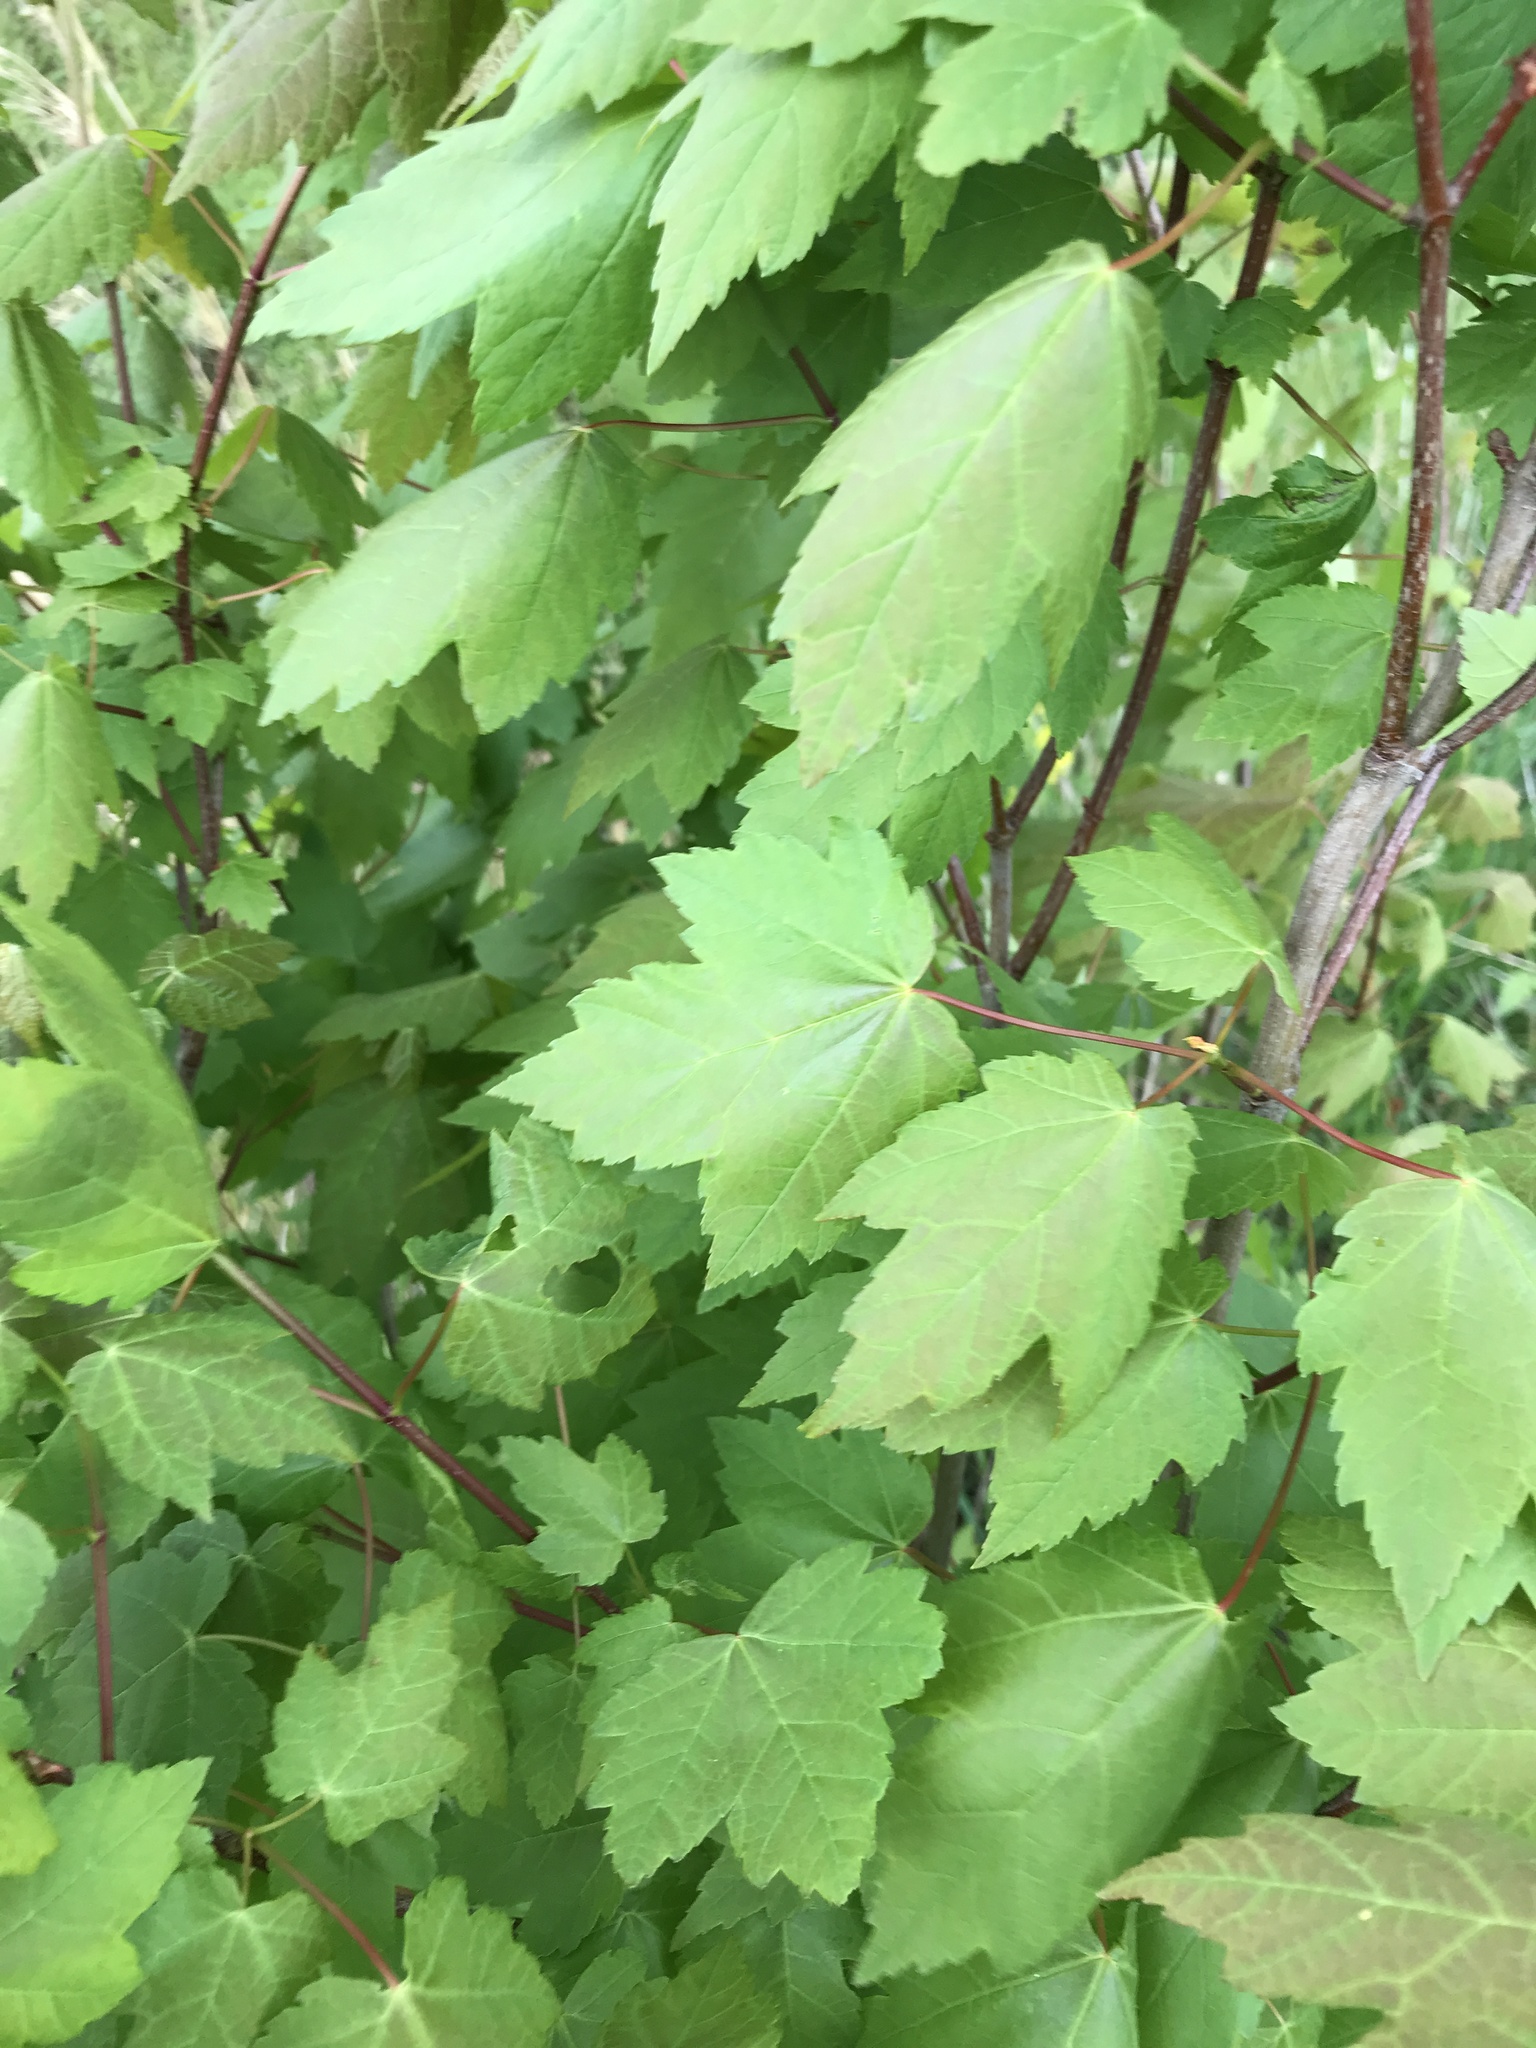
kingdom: Plantae
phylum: Tracheophyta
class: Magnoliopsida
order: Sapindales
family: Sapindaceae
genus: Acer
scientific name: Acer rubrum
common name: Red maple
